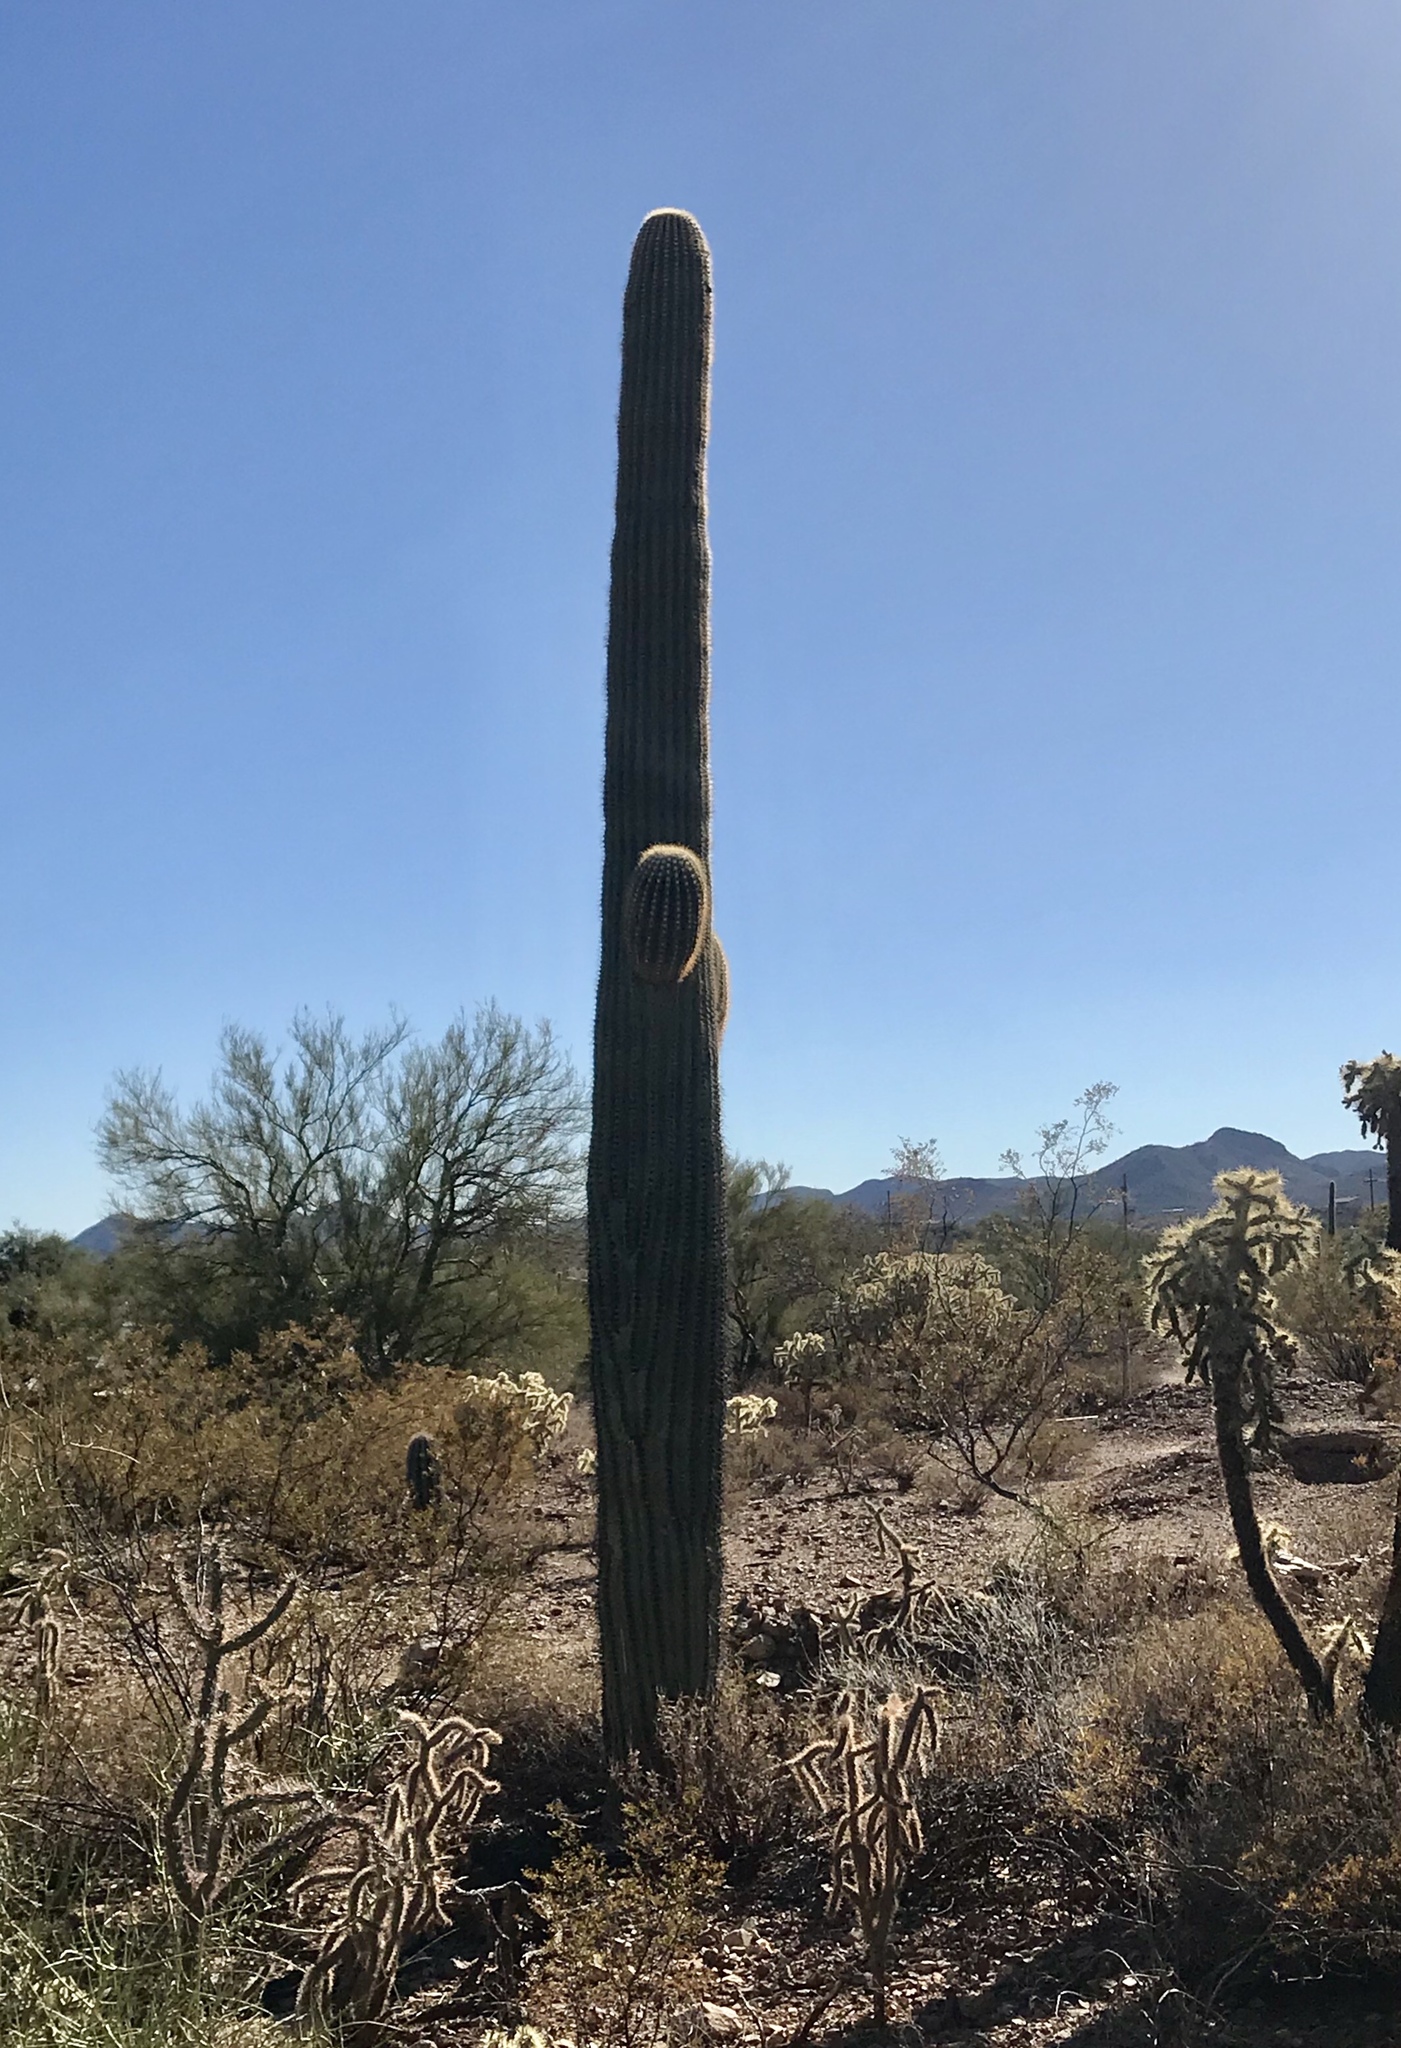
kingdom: Plantae
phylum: Tracheophyta
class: Magnoliopsida
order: Caryophyllales
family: Cactaceae
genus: Carnegiea
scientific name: Carnegiea gigantea
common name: Saguaro
